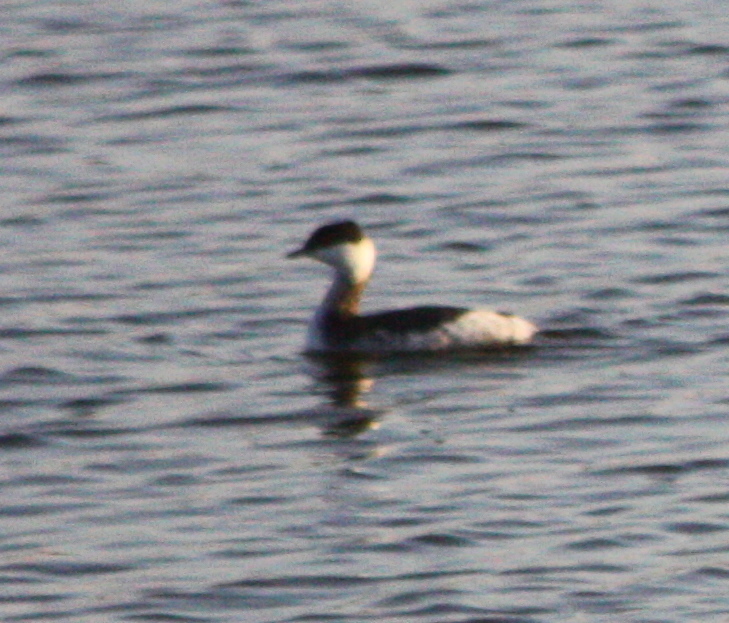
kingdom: Animalia
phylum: Chordata
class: Aves
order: Podicipediformes
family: Podicipedidae
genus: Podiceps
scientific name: Podiceps auritus
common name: Horned grebe
